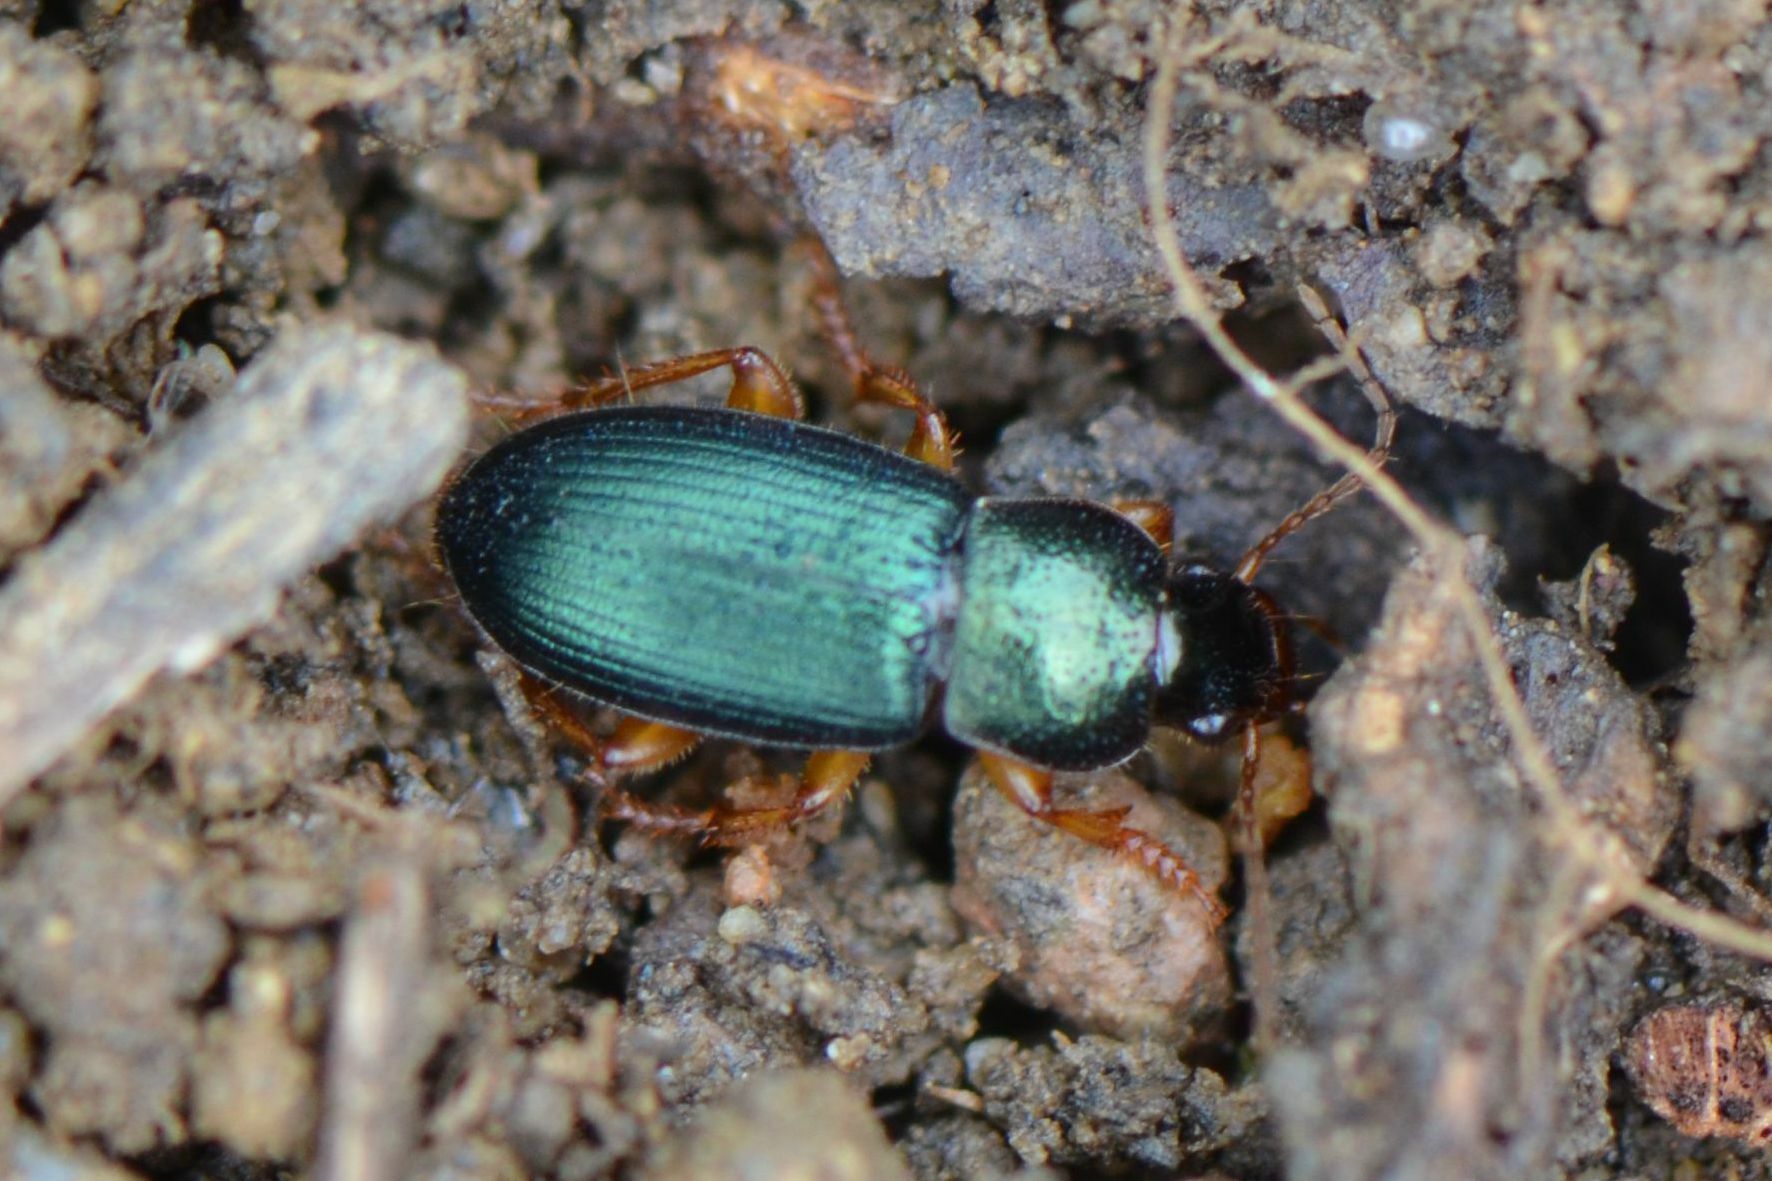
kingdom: Animalia
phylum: Arthropoda
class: Insecta
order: Coleoptera
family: Carabidae
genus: Ophonus
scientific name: Ophonus azureus
